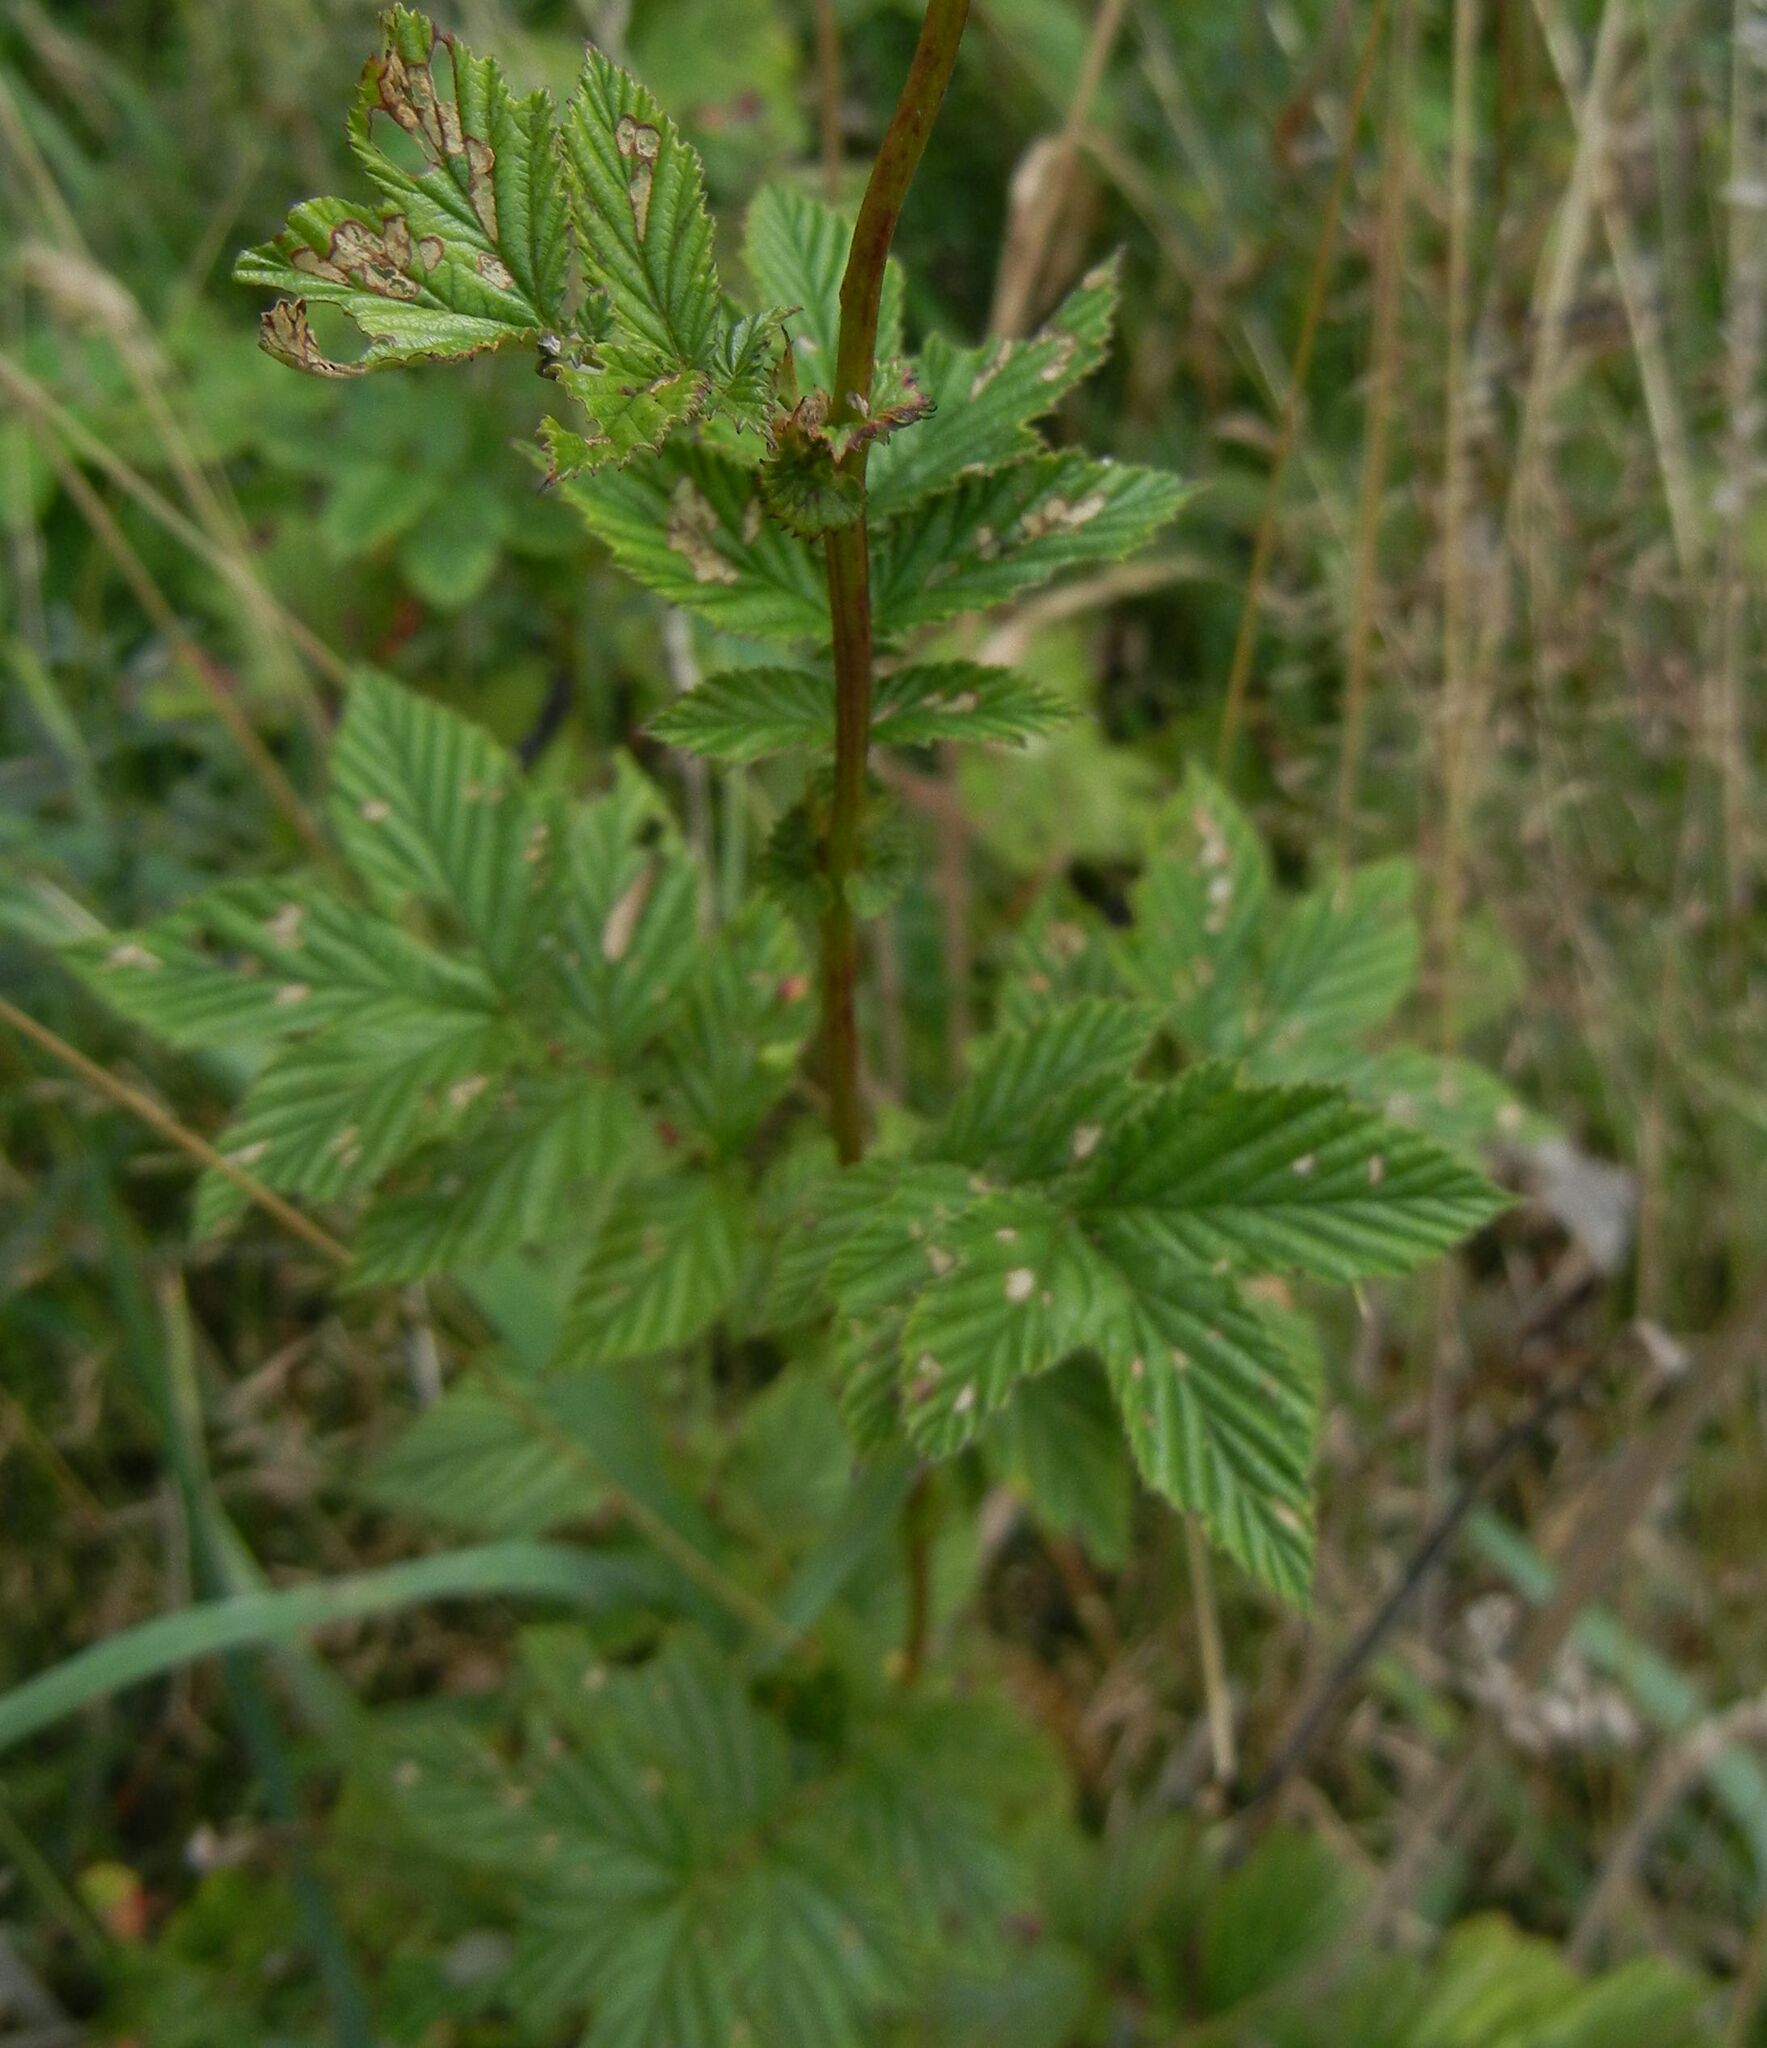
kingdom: Plantae
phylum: Tracheophyta
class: Magnoliopsida
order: Rosales
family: Rosaceae
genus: Filipendula
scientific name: Filipendula ulmaria
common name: Meadowsweet
